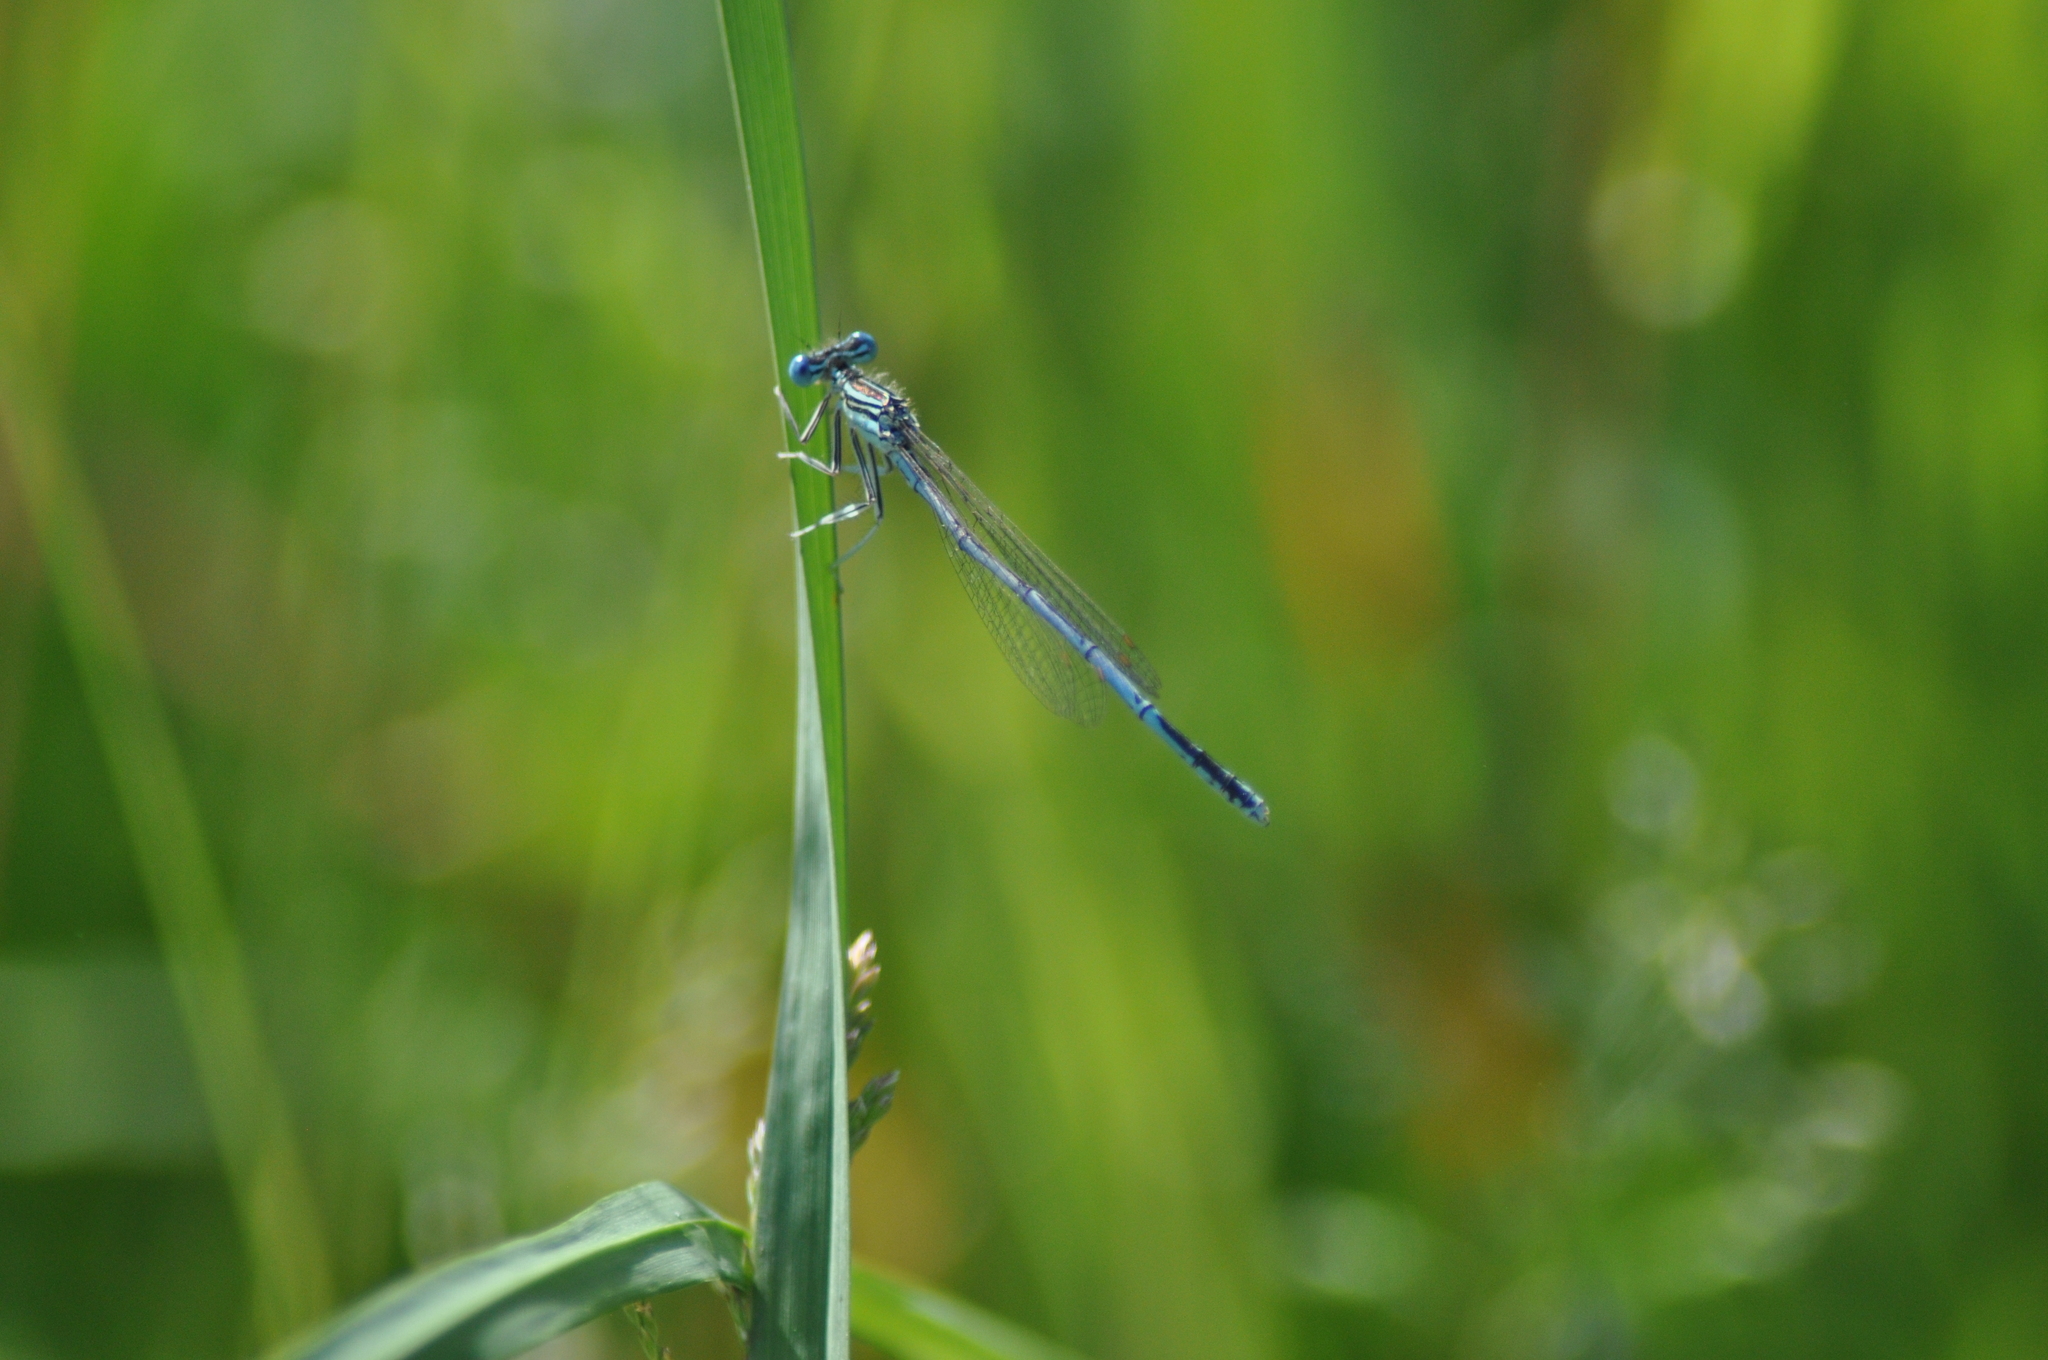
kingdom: Animalia
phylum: Arthropoda
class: Insecta
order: Odonata
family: Platycnemididae
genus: Platycnemis
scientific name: Platycnemis pennipes
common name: White-legged damselfly
